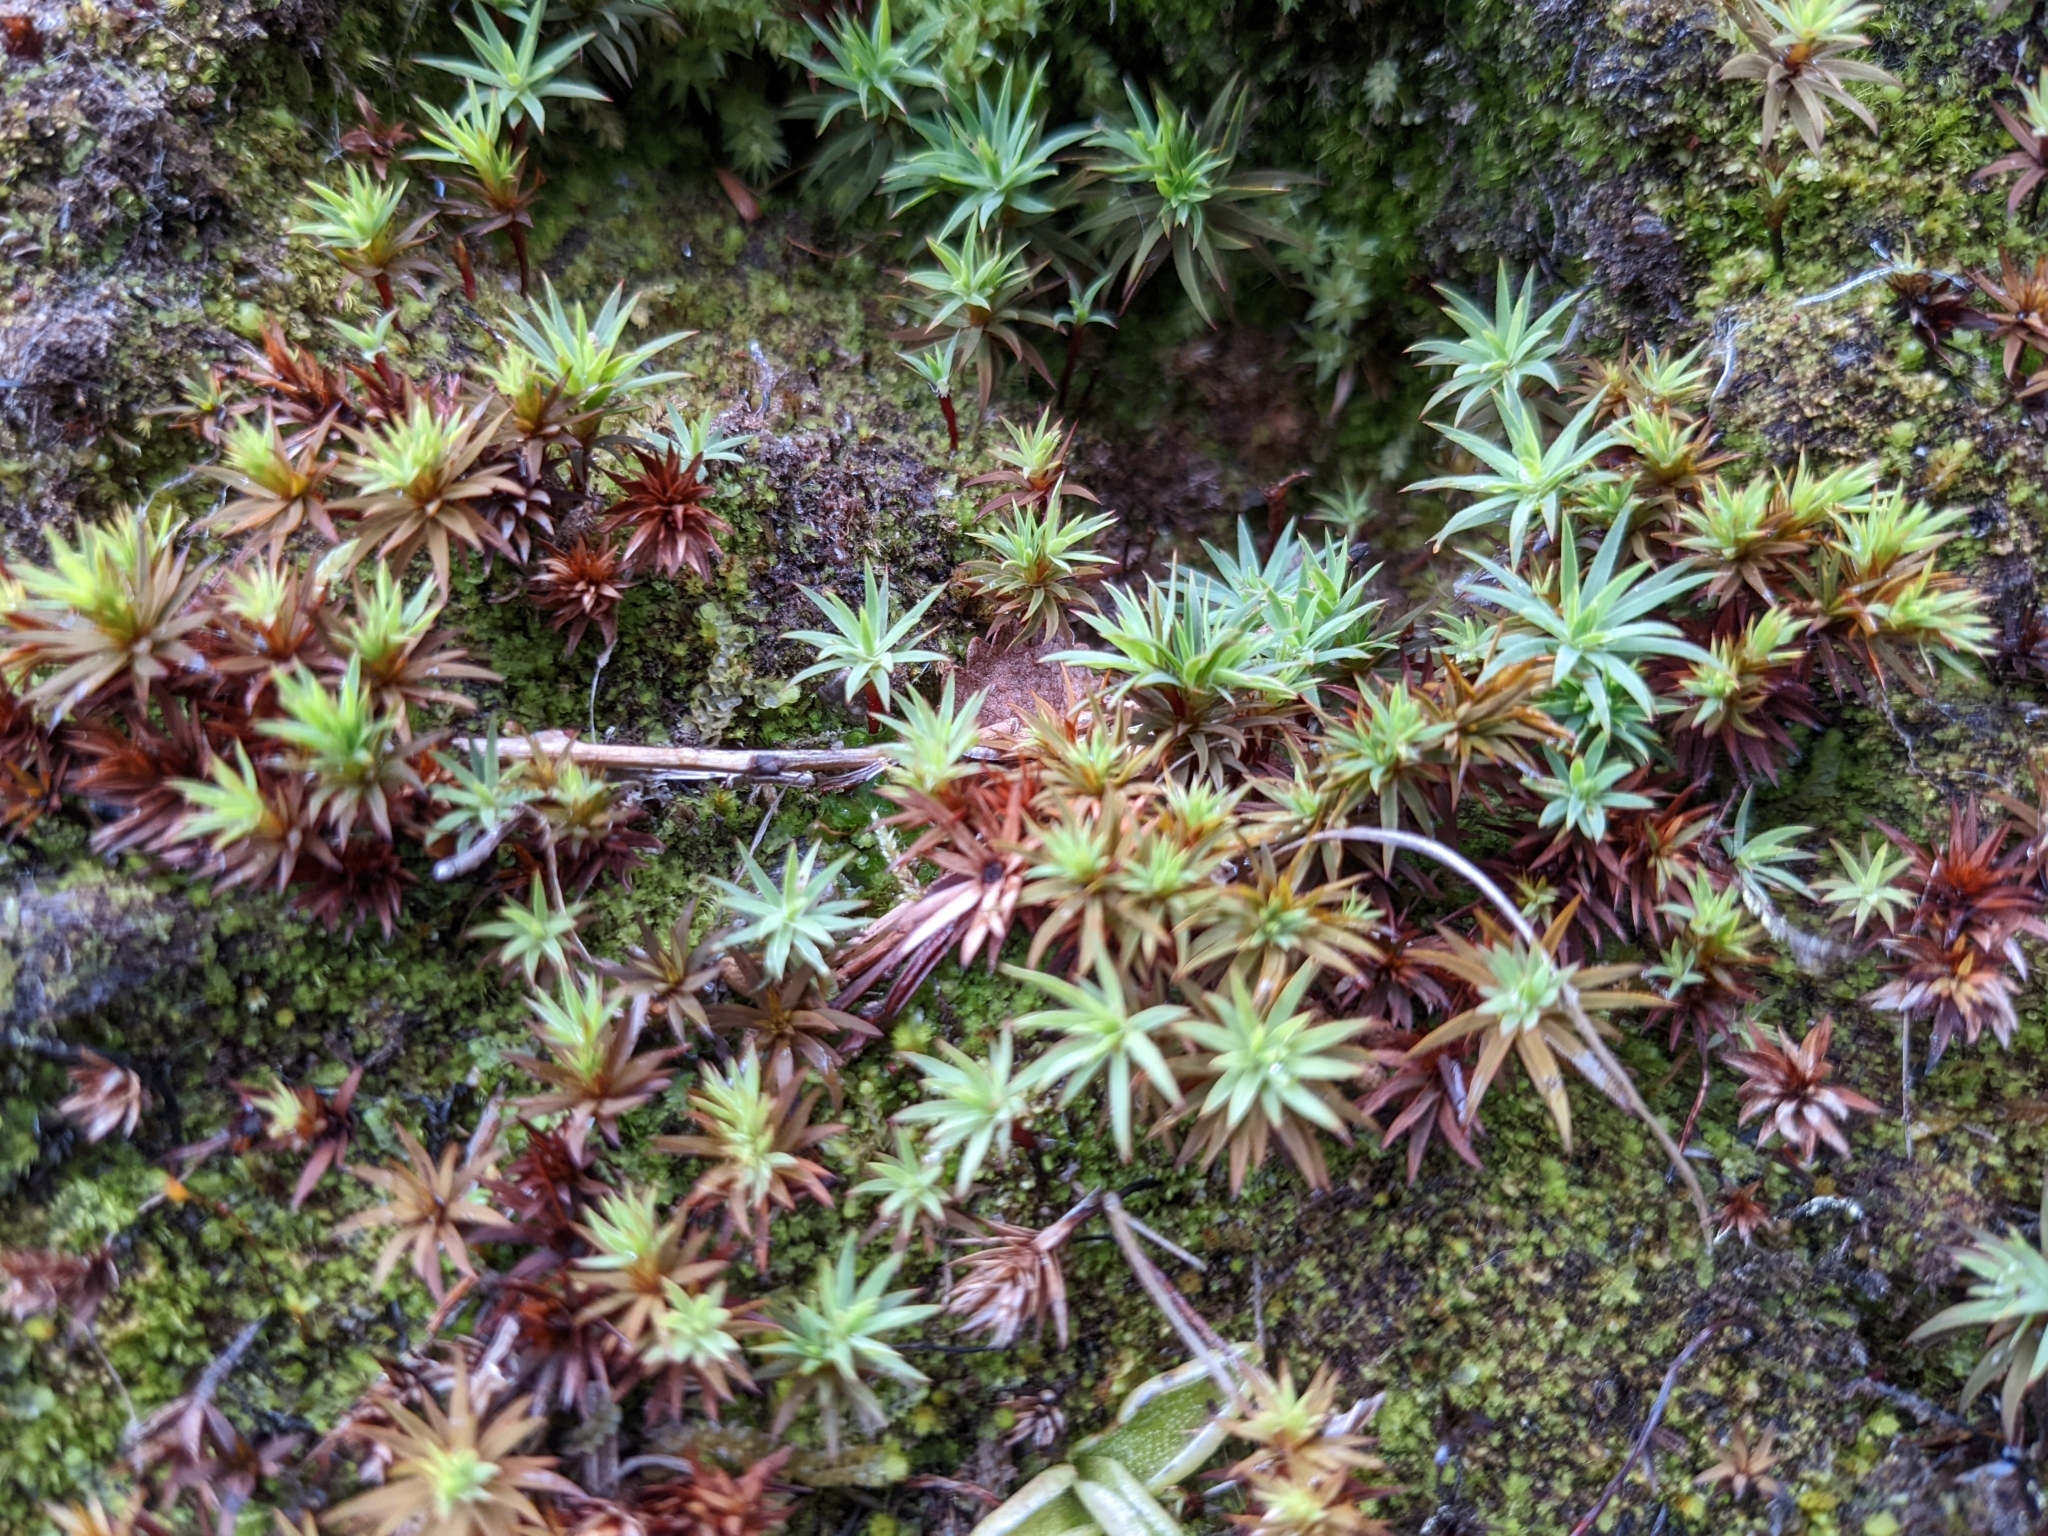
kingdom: Plantae
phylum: Bryophyta
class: Polytrichopsida
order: Polytrichales
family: Polytrichaceae
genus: Pogonatum
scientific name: Pogonatum urnigerum
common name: Urn hair moss
